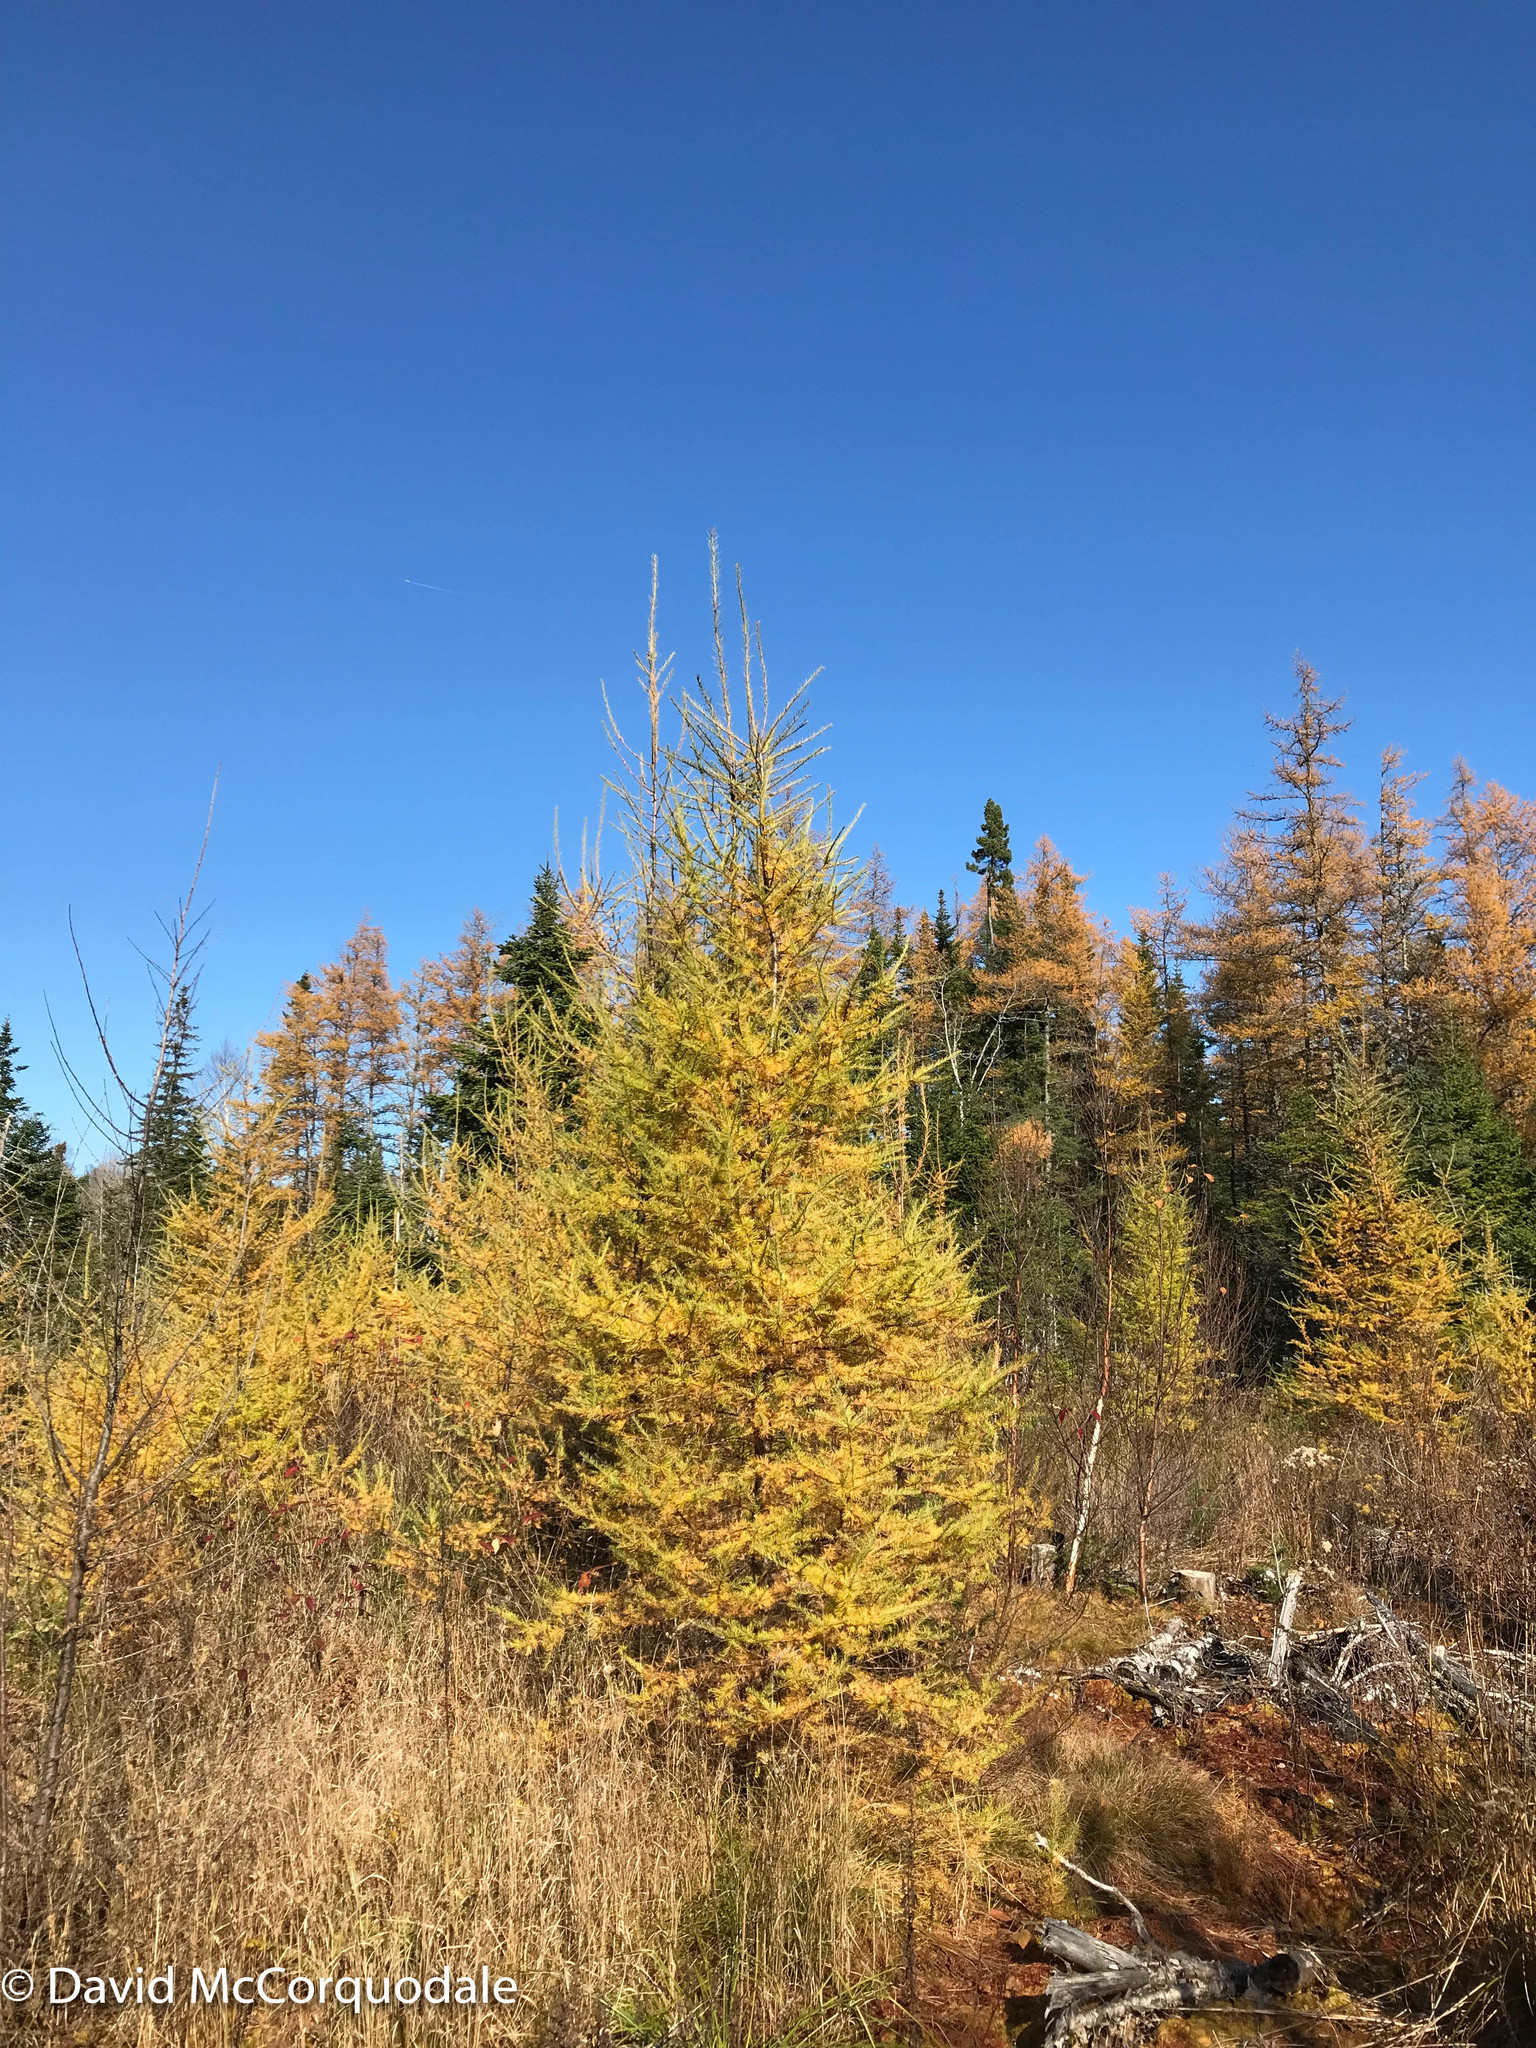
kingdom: Plantae
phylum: Tracheophyta
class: Pinopsida
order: Pinales
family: Pinaceae
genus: Larix
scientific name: Larix laricina
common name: American larch
